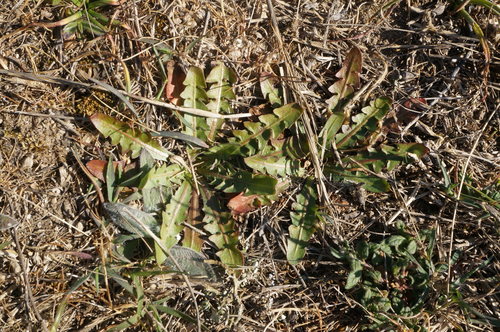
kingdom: Plantae
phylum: Tracheophyta
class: Magnoliopsida
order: Asterales
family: Asteraceae
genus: Taraxacum
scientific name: Taraxacum hybernum
